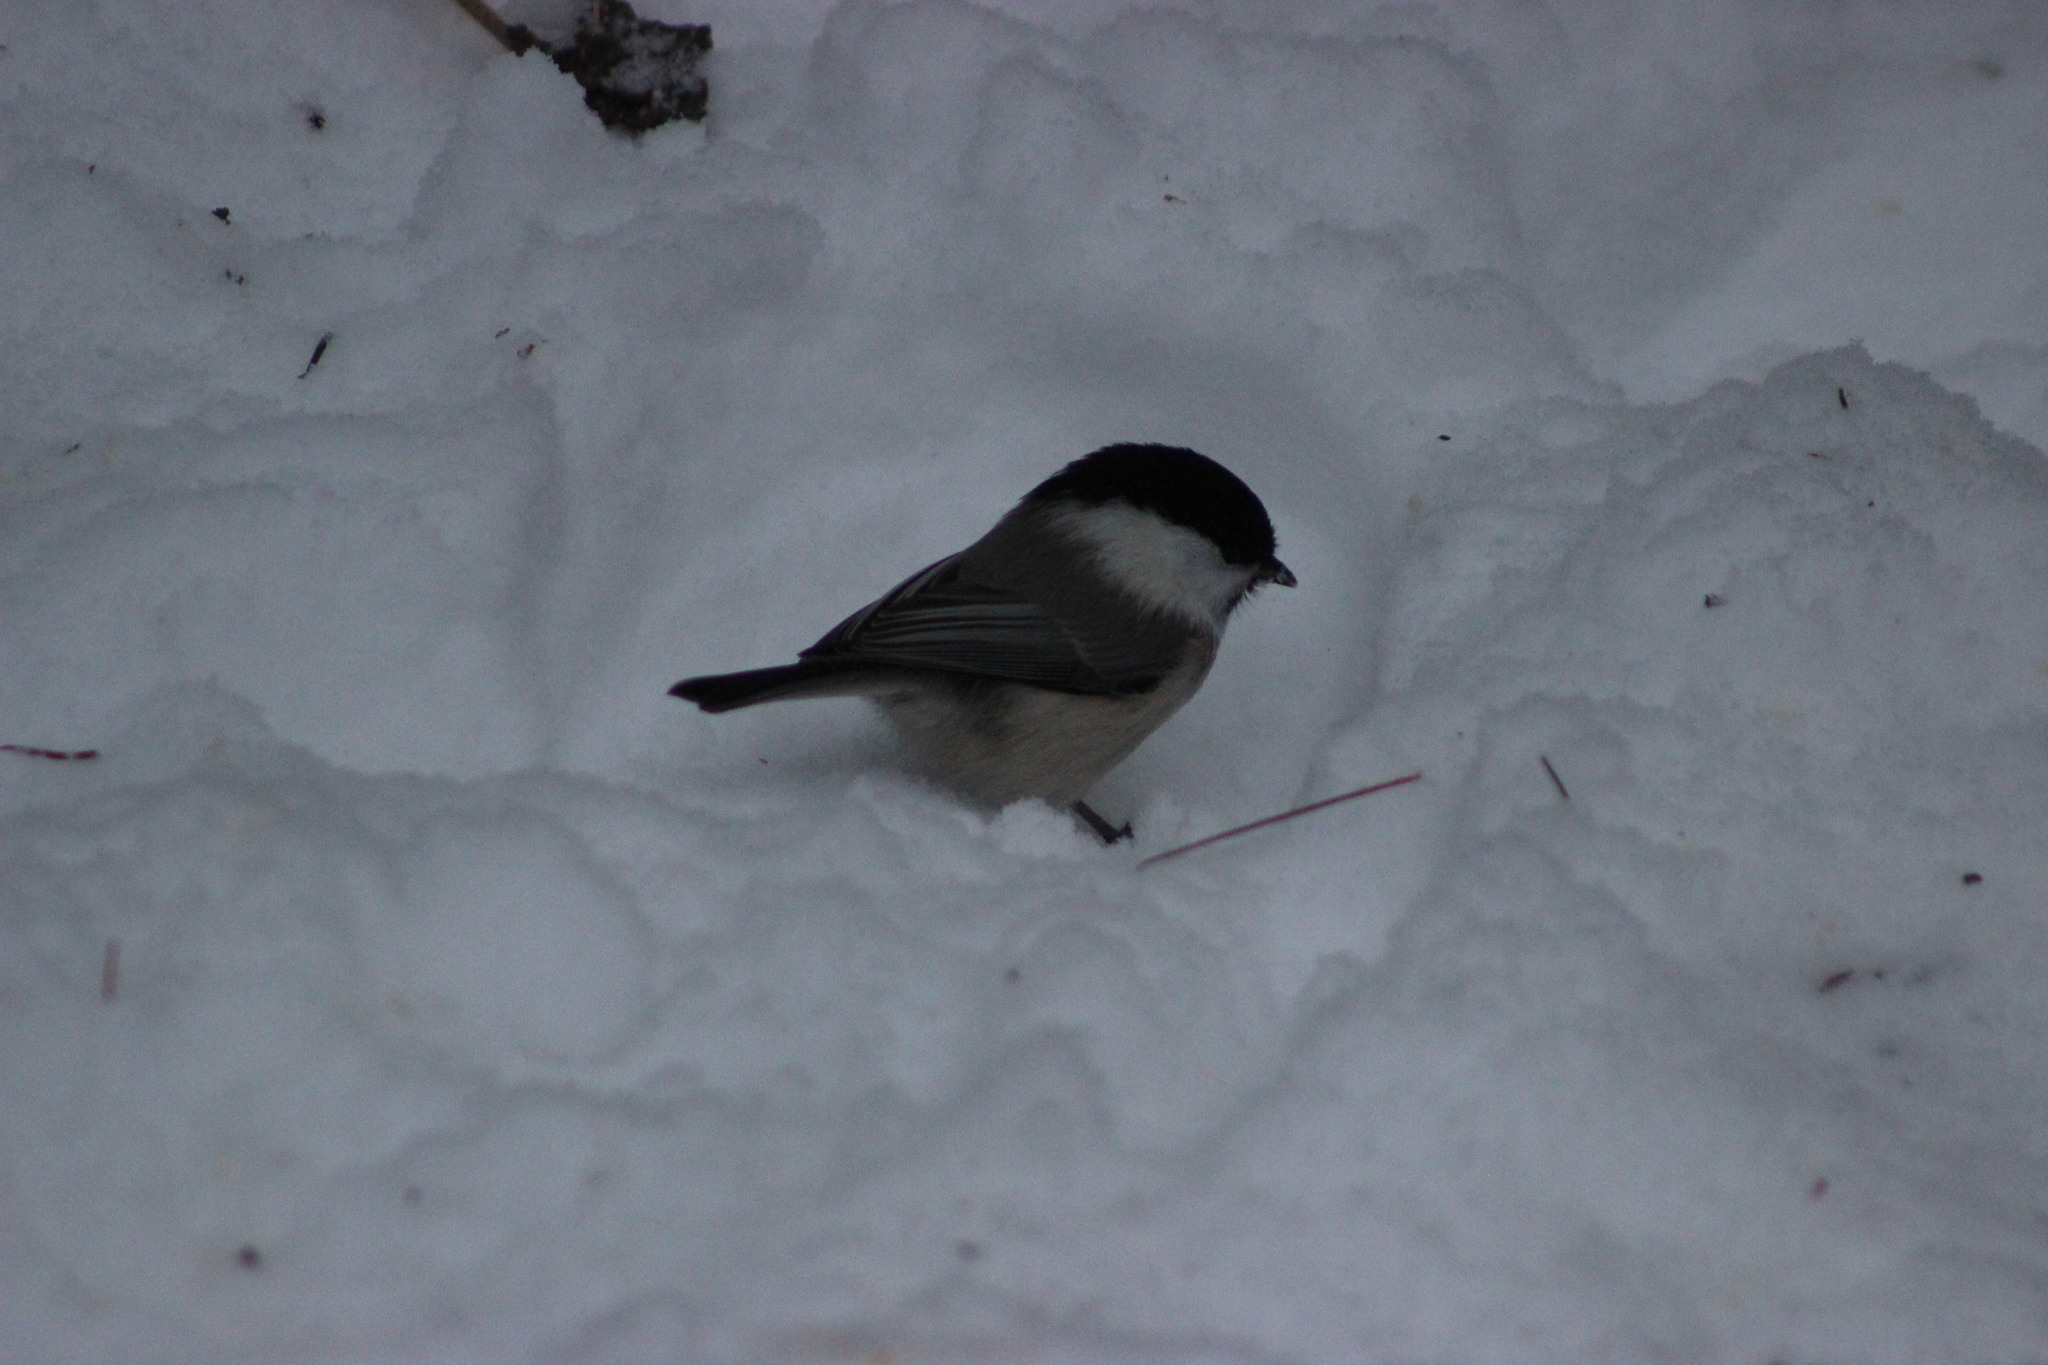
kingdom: Animalia
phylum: Chordata
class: Aves
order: Passeriformes
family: Paridae
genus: Poecile
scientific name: Poecile montanus
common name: Willow tit
